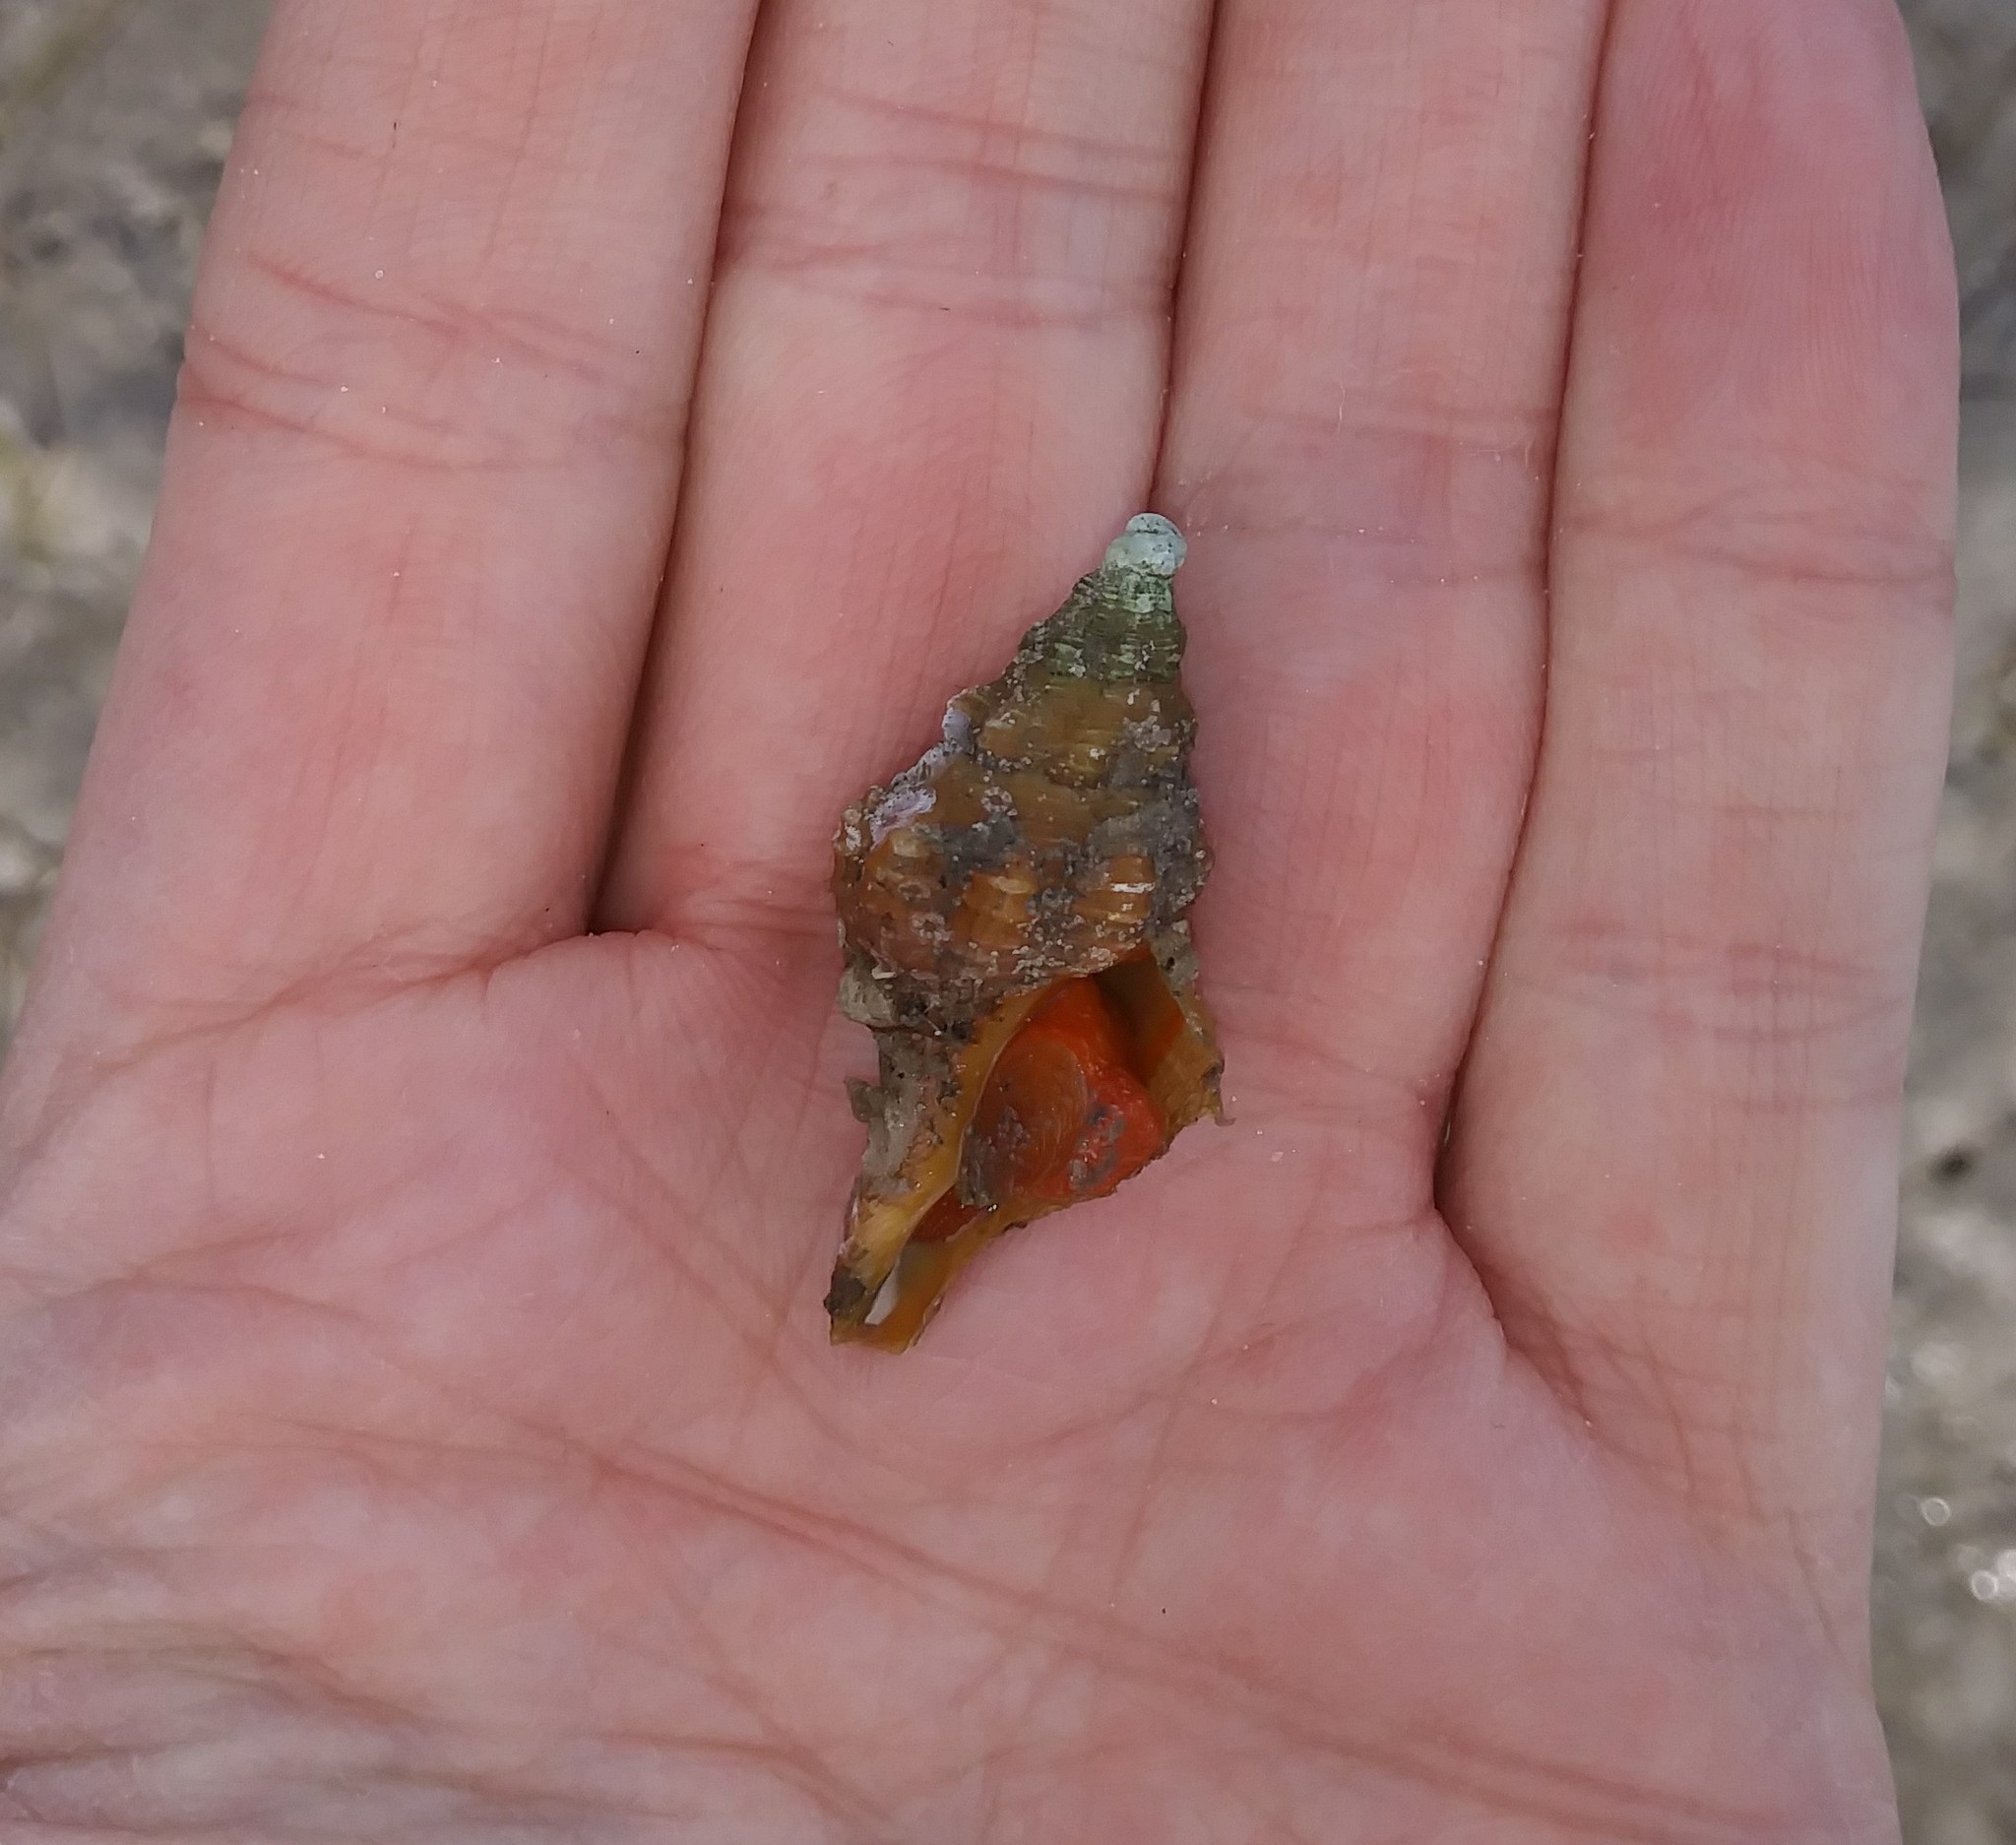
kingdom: Animalia
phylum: Mollusca
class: Gastropoda
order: Neogastropoda
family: Fasciolariidae
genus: Triplofusus
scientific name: Triplofusus giganteus
